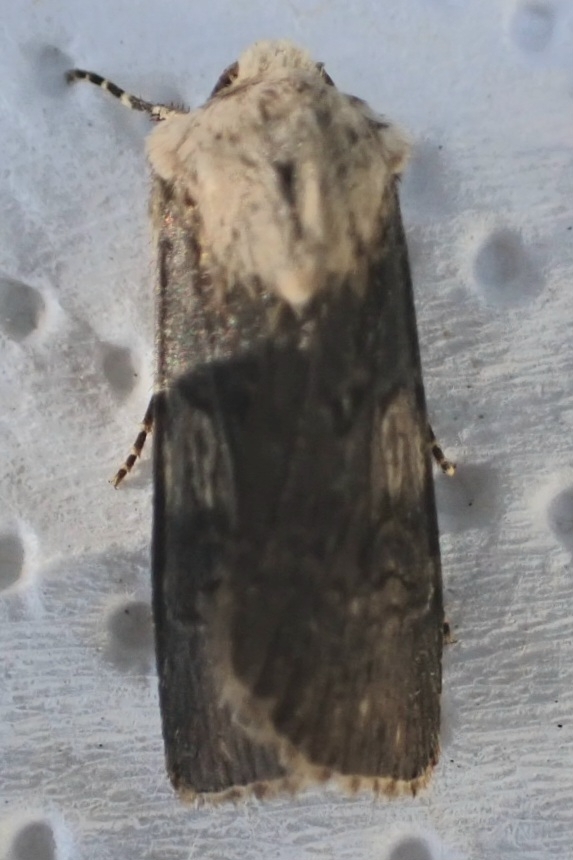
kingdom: Animalia
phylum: Arthropoda
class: Insecta
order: Lepidoptera
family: Noctuidae
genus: Agrotis
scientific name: Agrotis puta
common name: Shuttle-shaped dart
